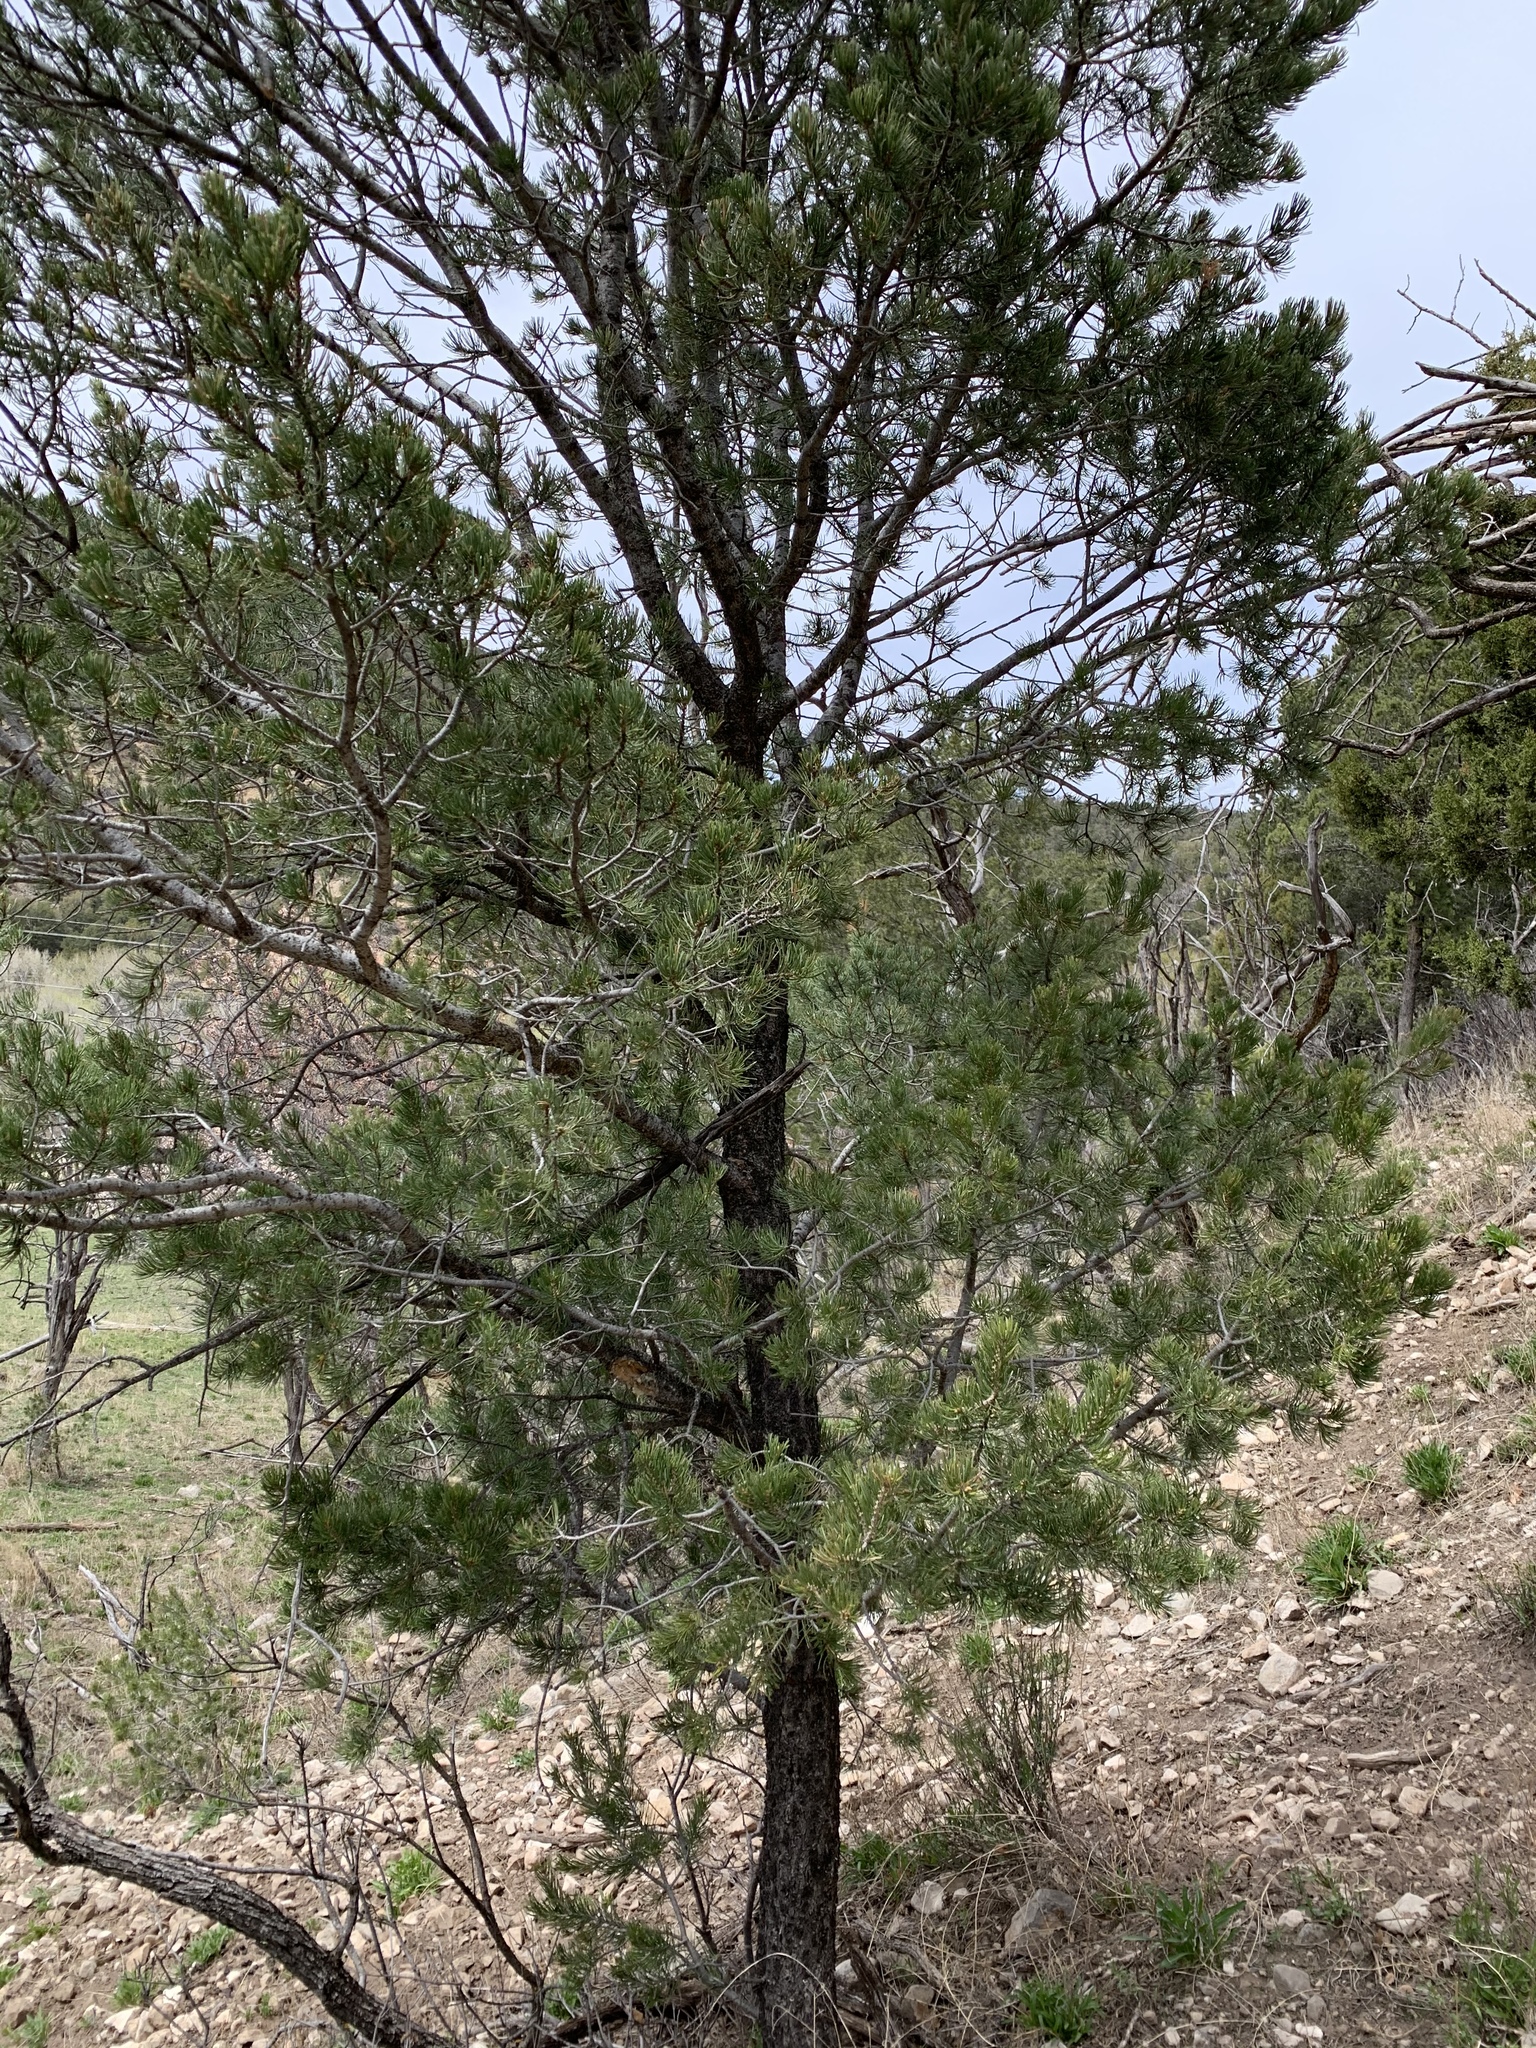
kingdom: Plantae
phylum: Tracheophyta
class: Pinopsida
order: Pinales
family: Pinaceae
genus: Pinus
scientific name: Pinus edulis
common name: Colorado pinyon
